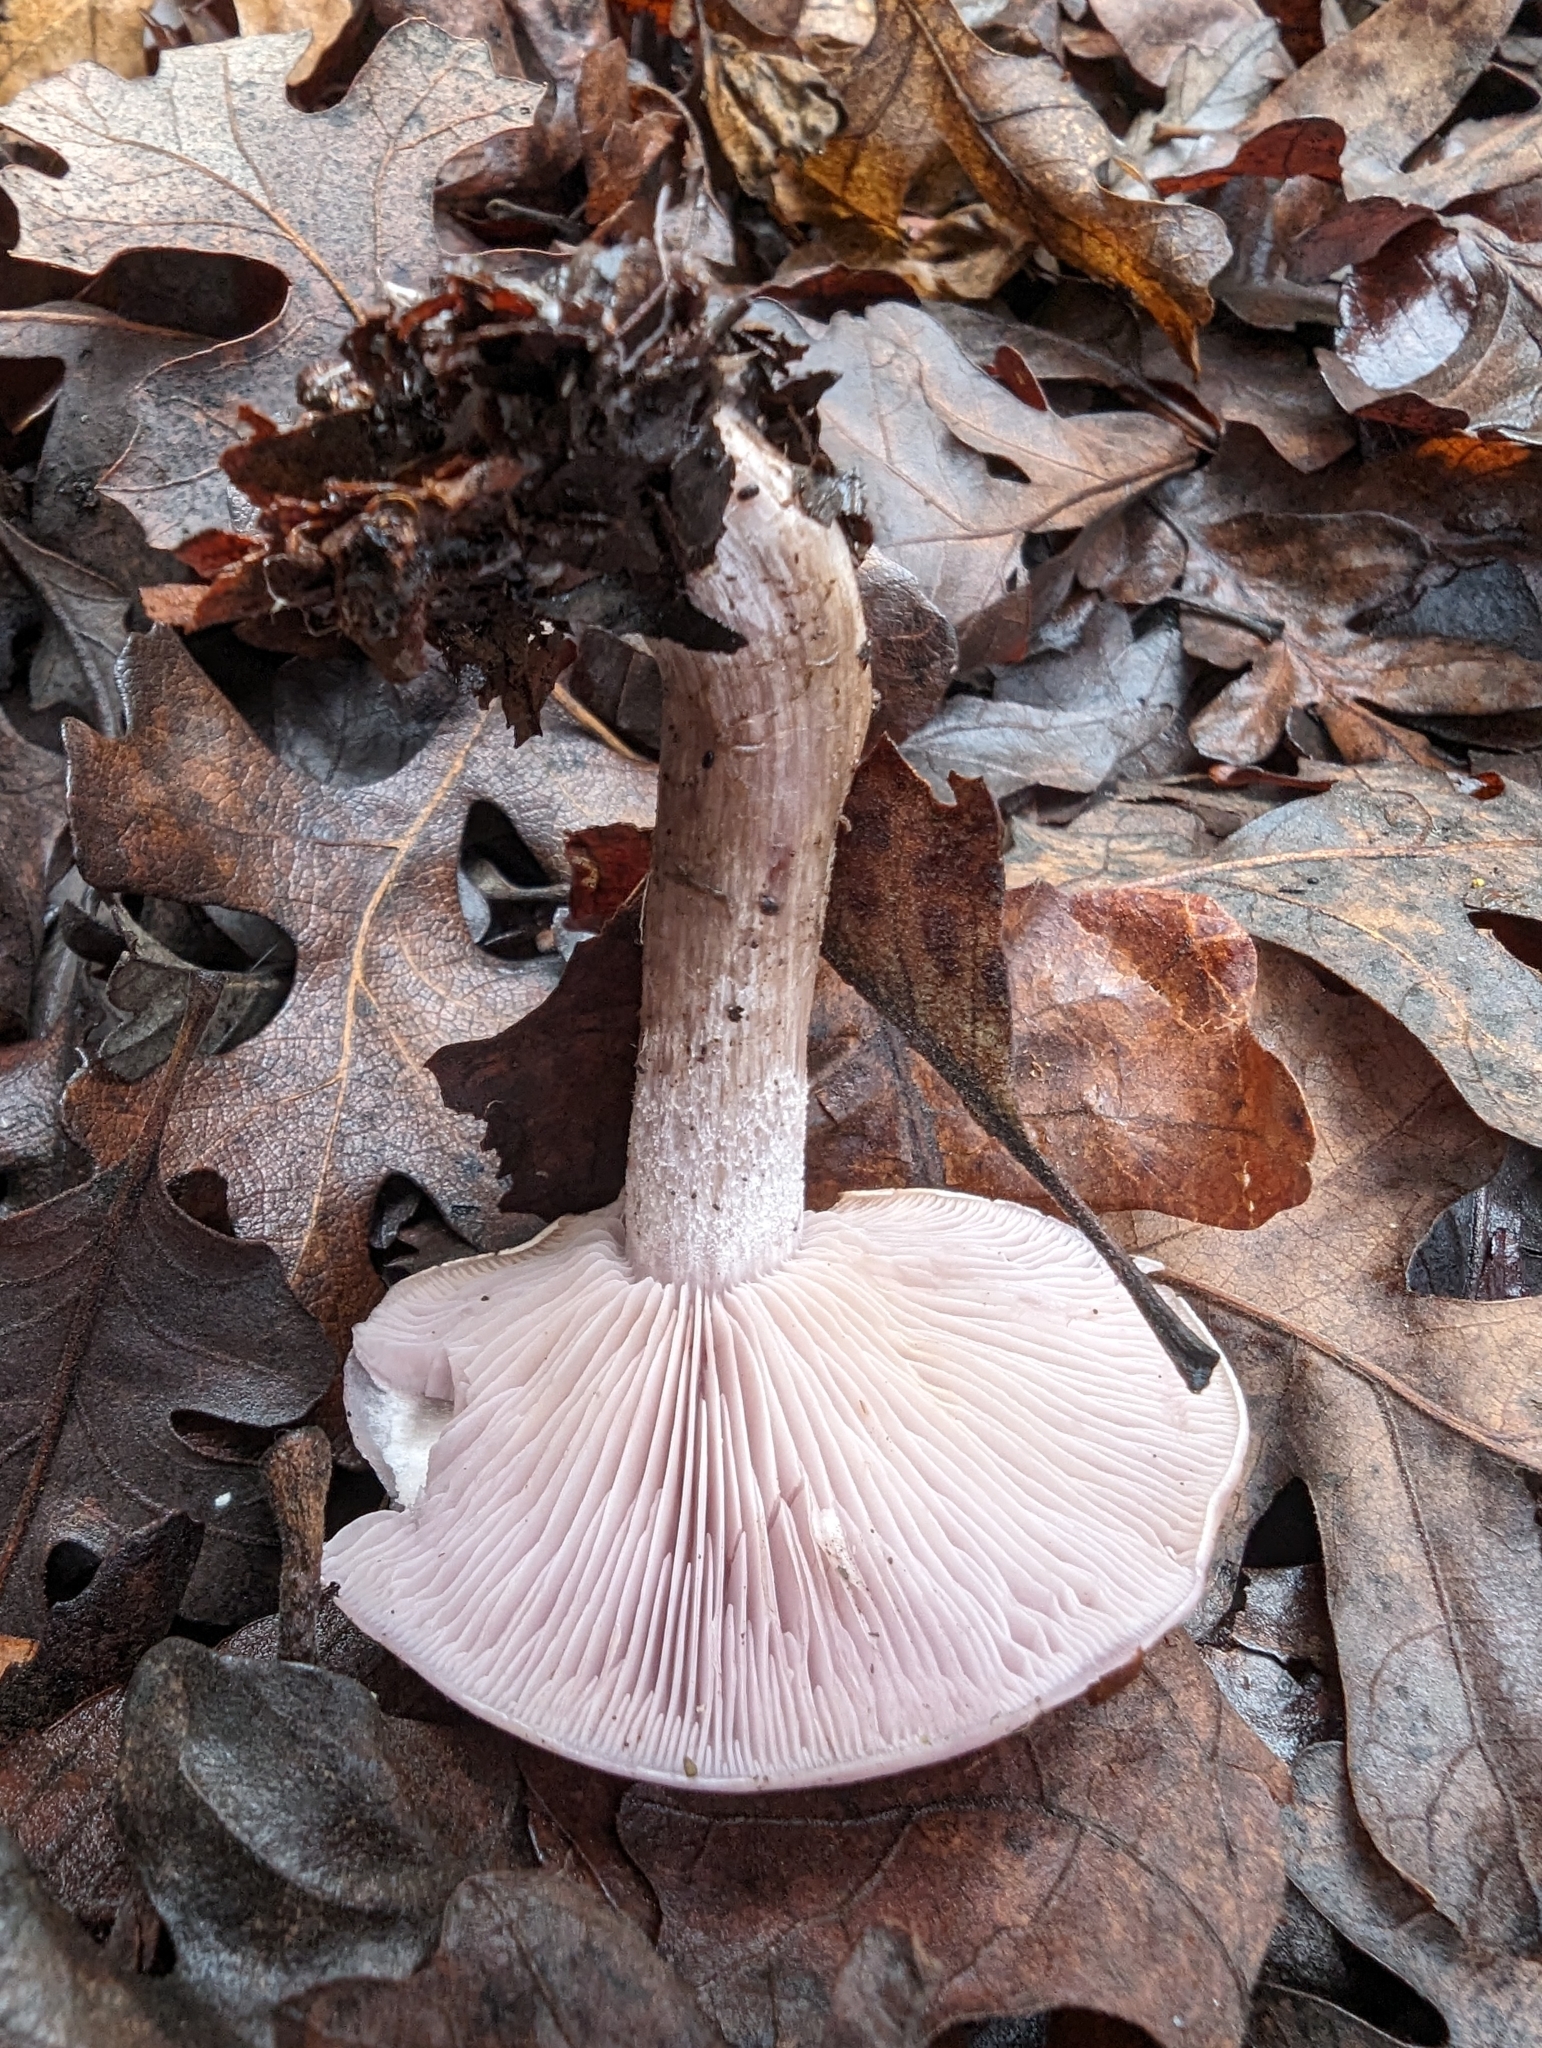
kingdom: Fungi
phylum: Basidiomycota
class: Agaricomycetes
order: Agaricales
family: Tricholomataceae
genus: Collybia
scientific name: Collybia
